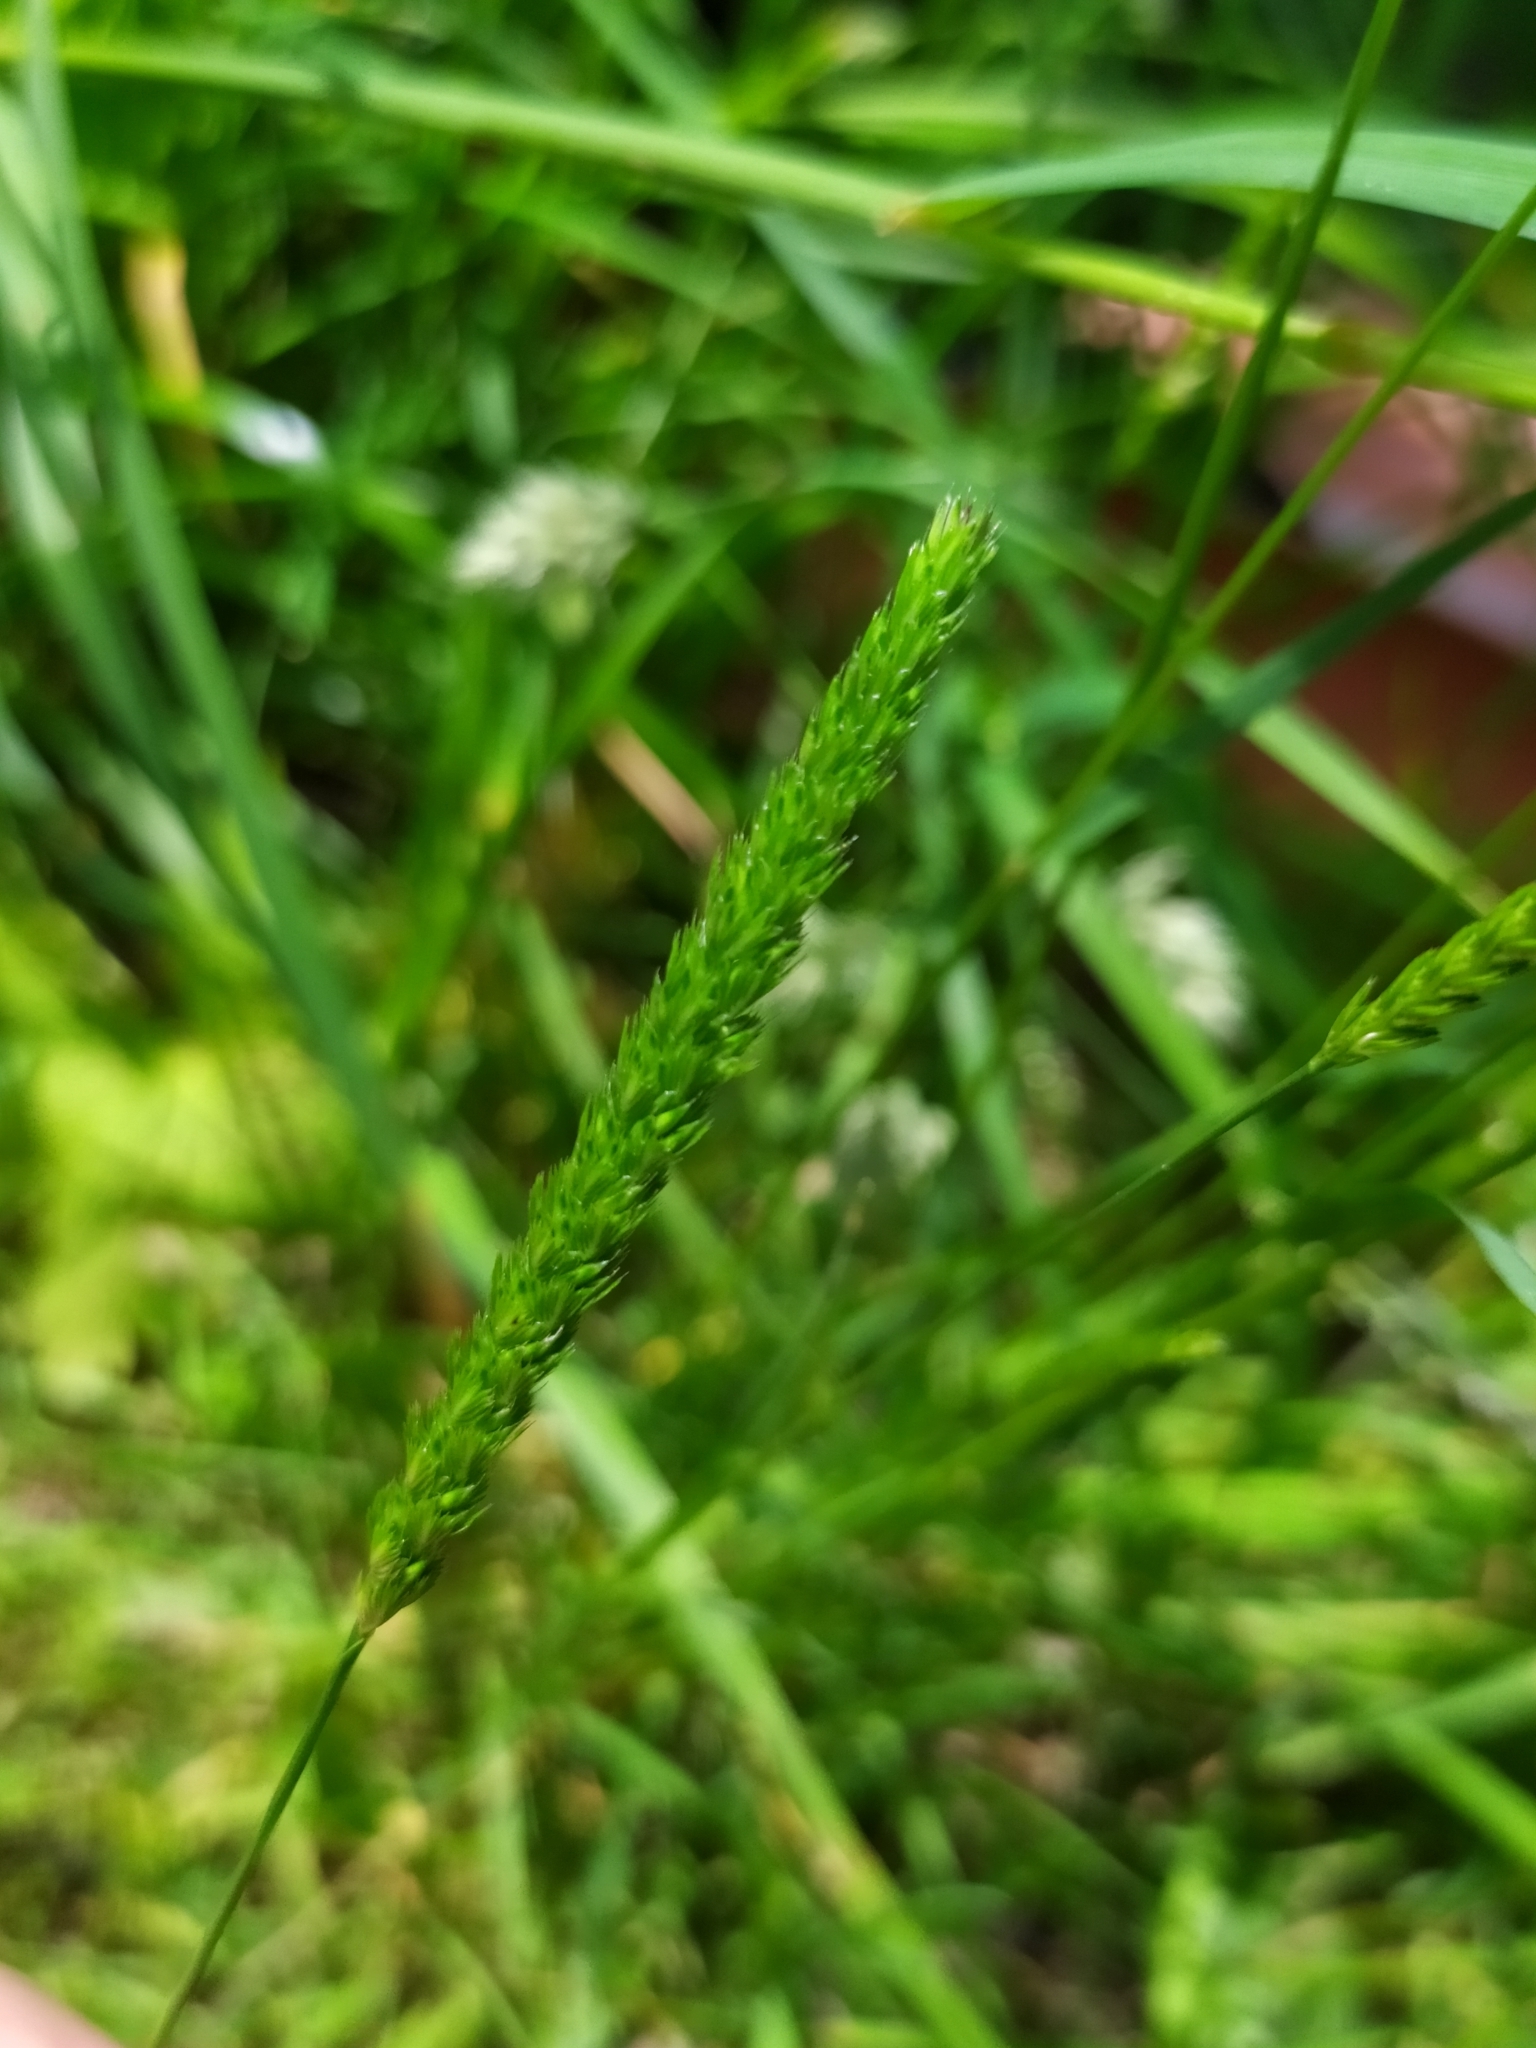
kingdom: Plantae
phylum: Tracheophyta
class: Liliopsida
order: Poales
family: Poaceae
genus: Cynosurus
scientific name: Cynosurus cristatus
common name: Crested dog's-tail
